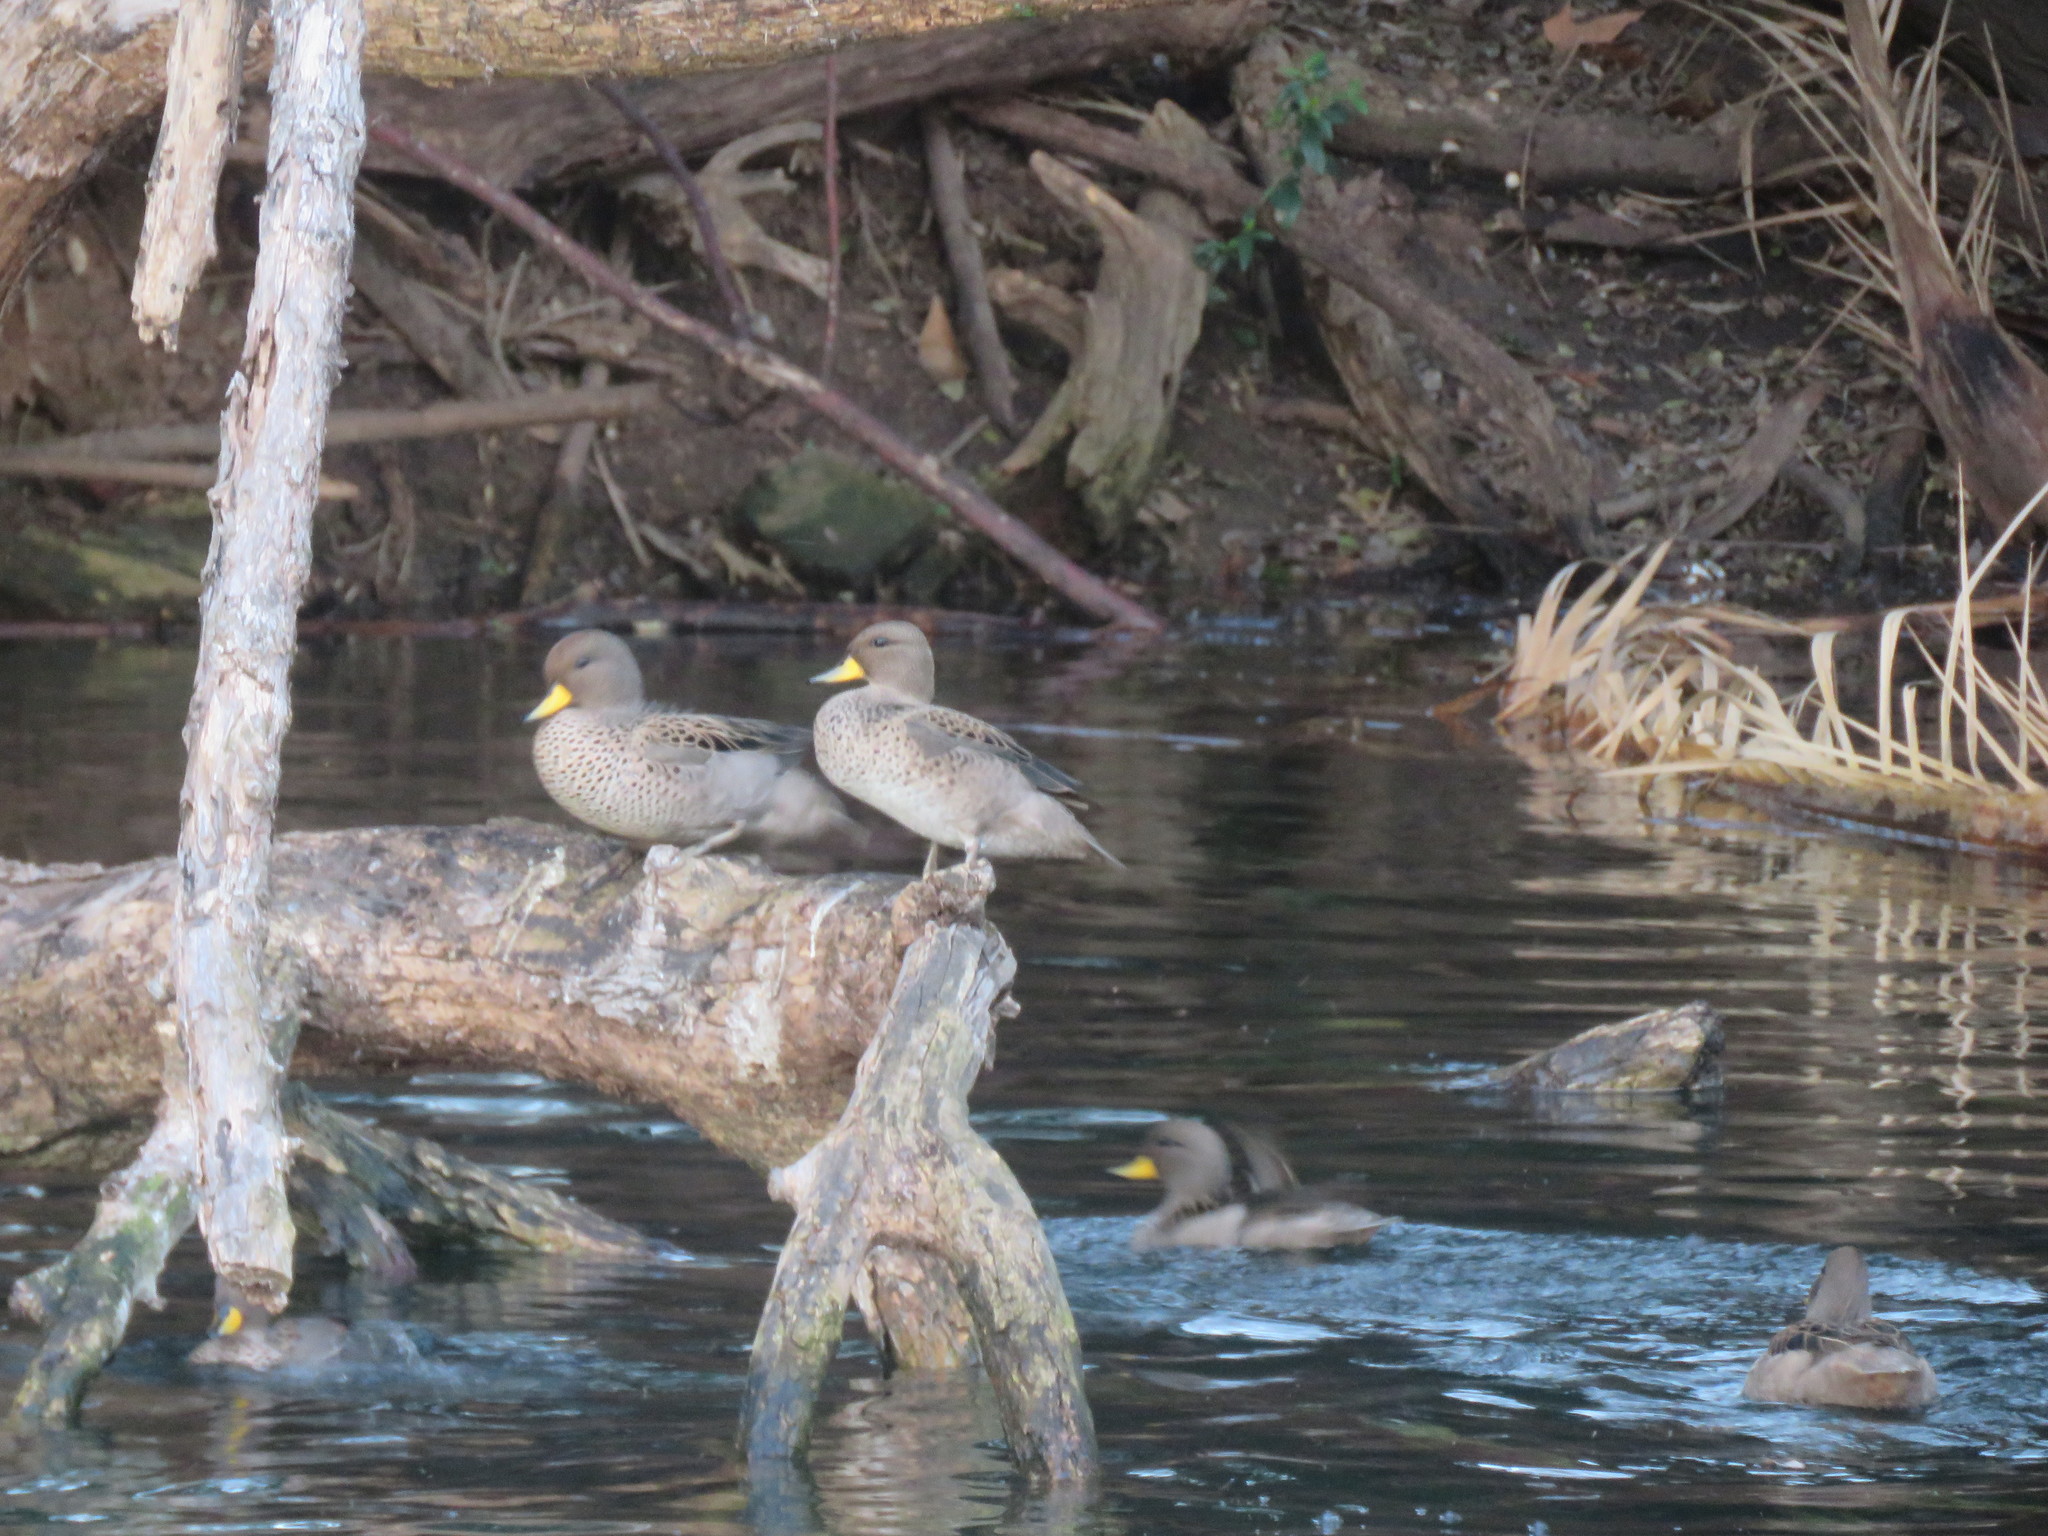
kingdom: Animalia
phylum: Chordata
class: Aves
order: Anseriformes
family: Anatidae
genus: Anas
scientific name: Anas flavirostris
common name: Yellow-billed teal
